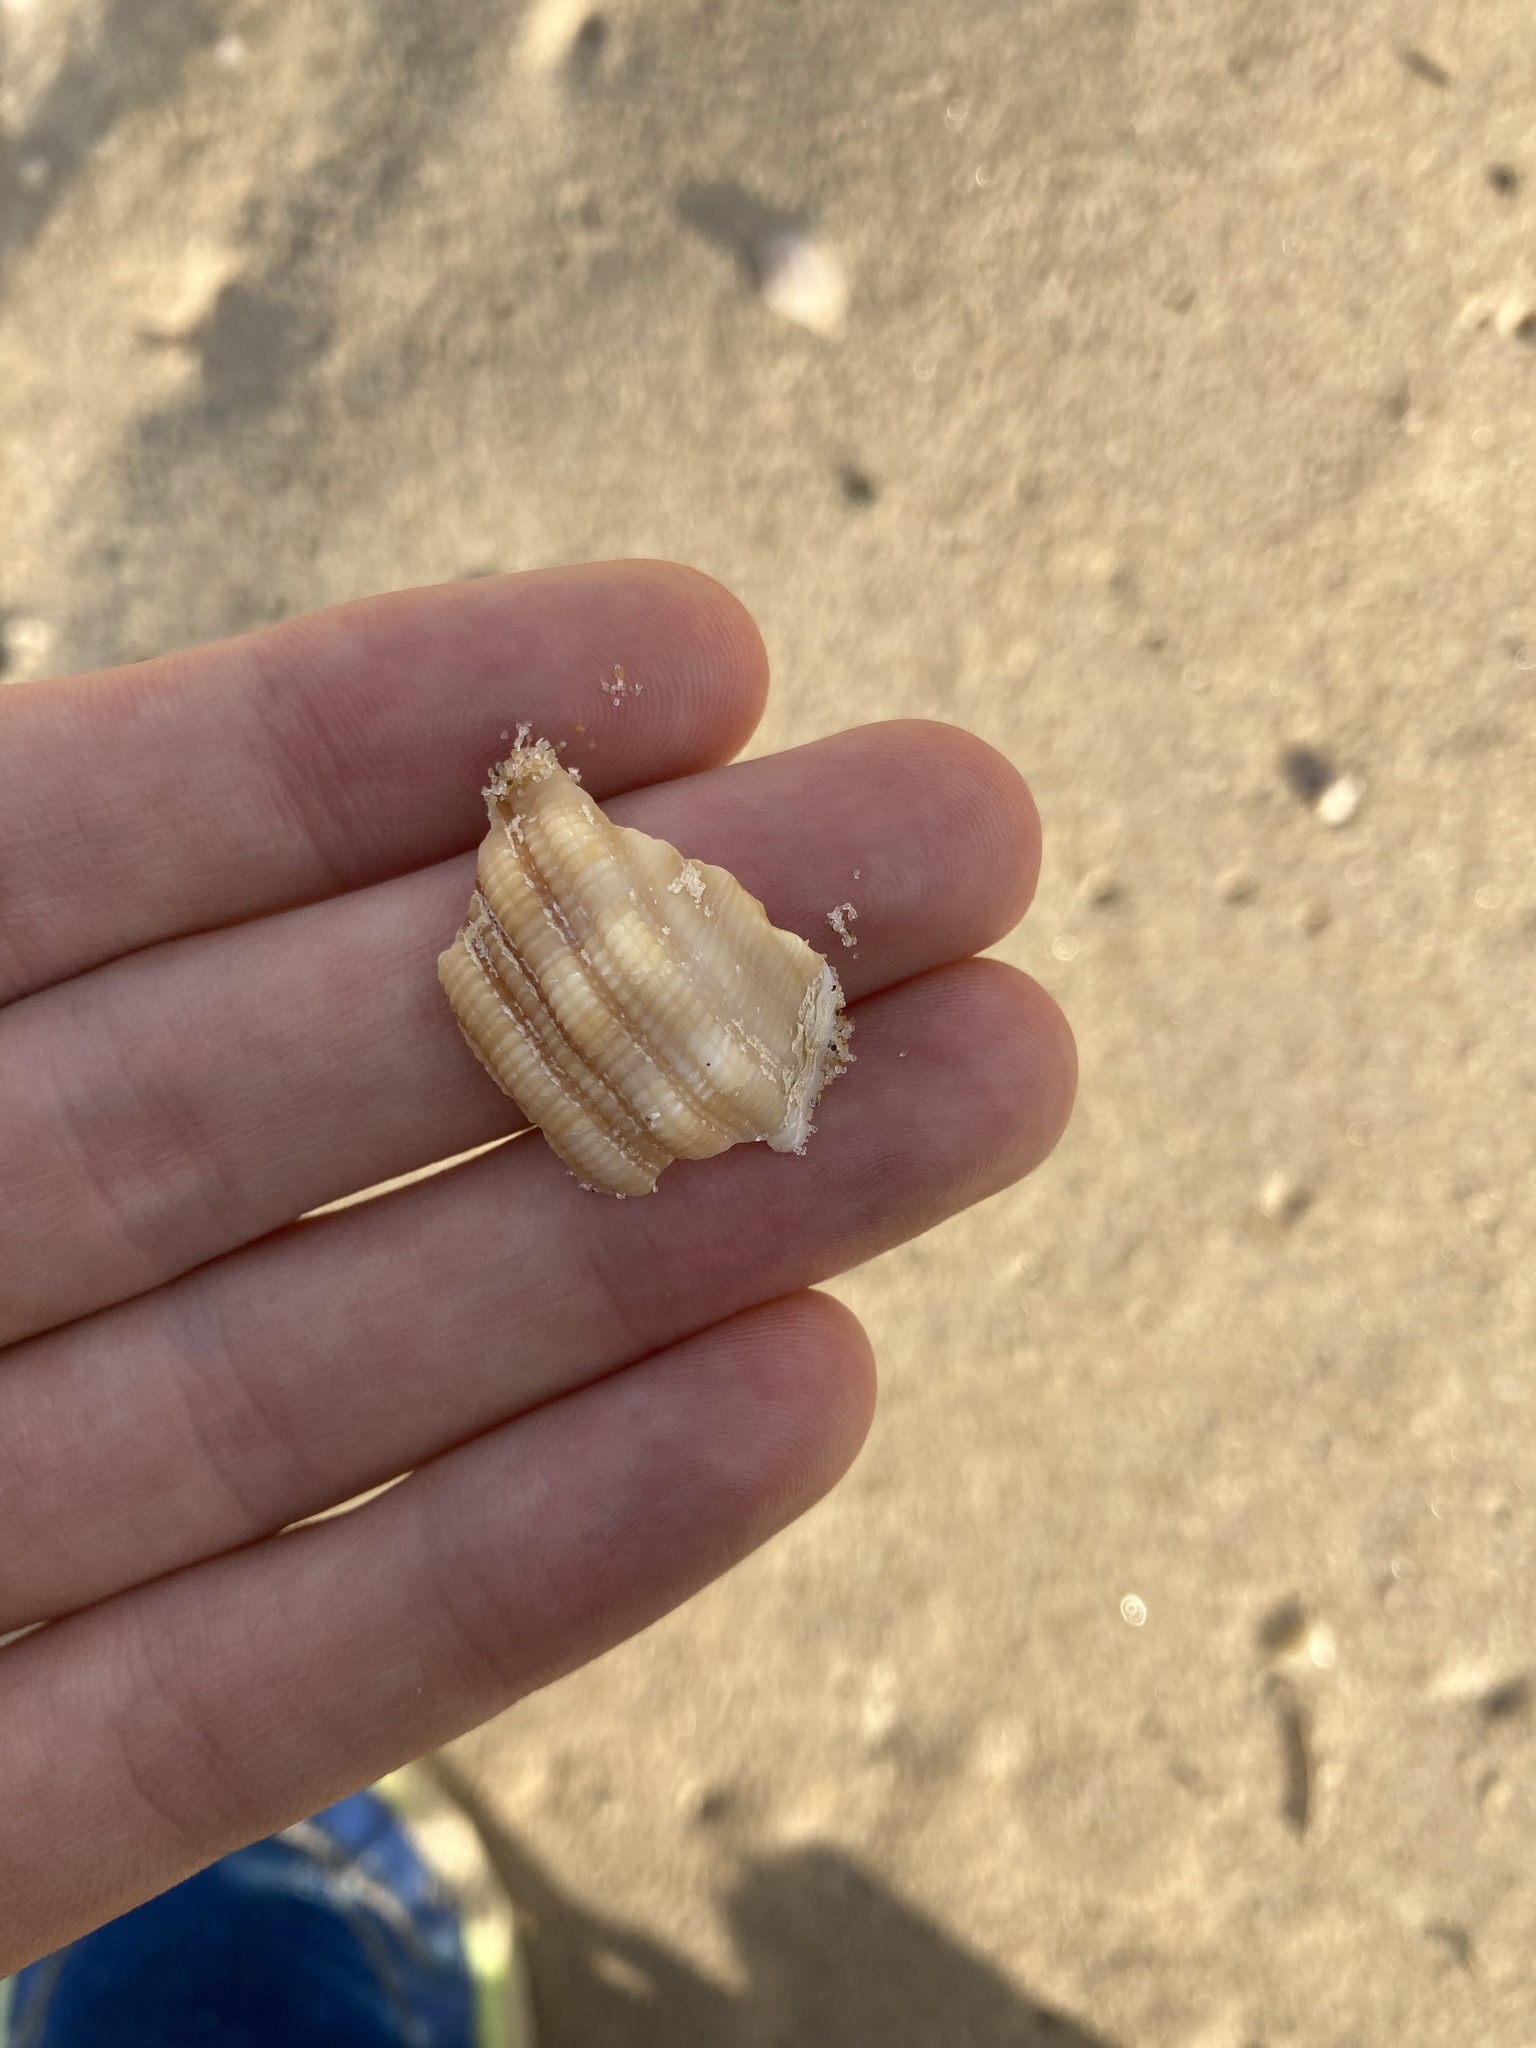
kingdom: Animalia
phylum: Mollusca
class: Gastropoda
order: Littorinimorpha
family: Cymatiidae
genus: Cabestana
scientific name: Cabestana spengleri
